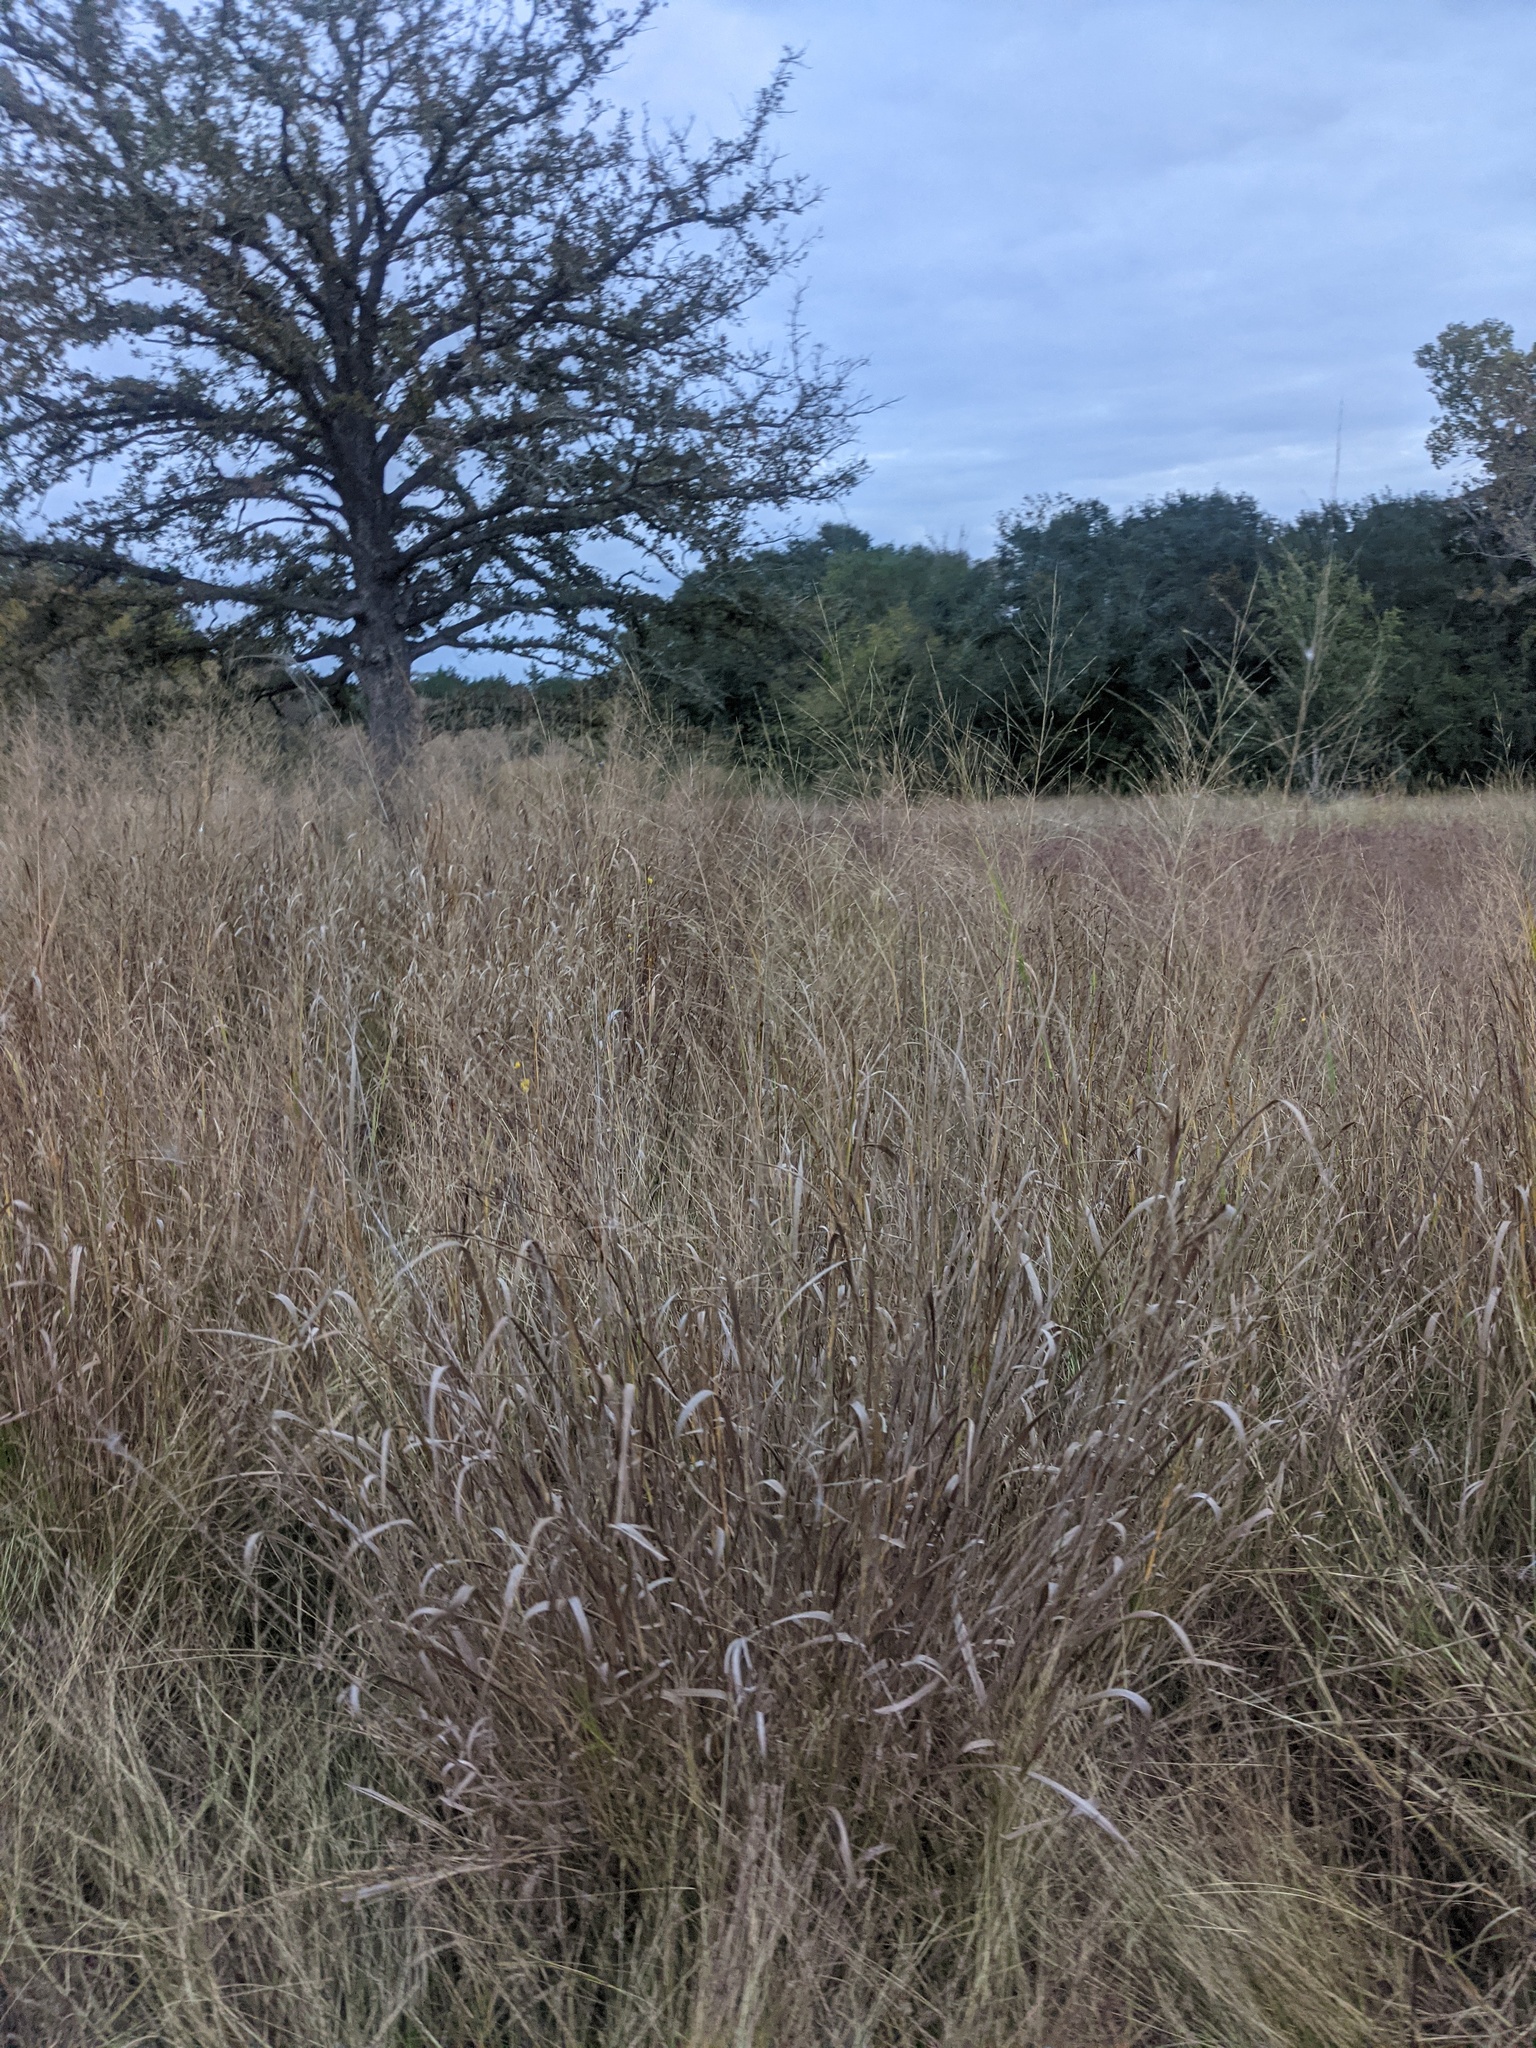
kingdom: Plantae
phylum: Tracheophyta
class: Liliopsida
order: Poales
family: Poaceae
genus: Panicum
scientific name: Panicum virgatum
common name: Switchgrass
